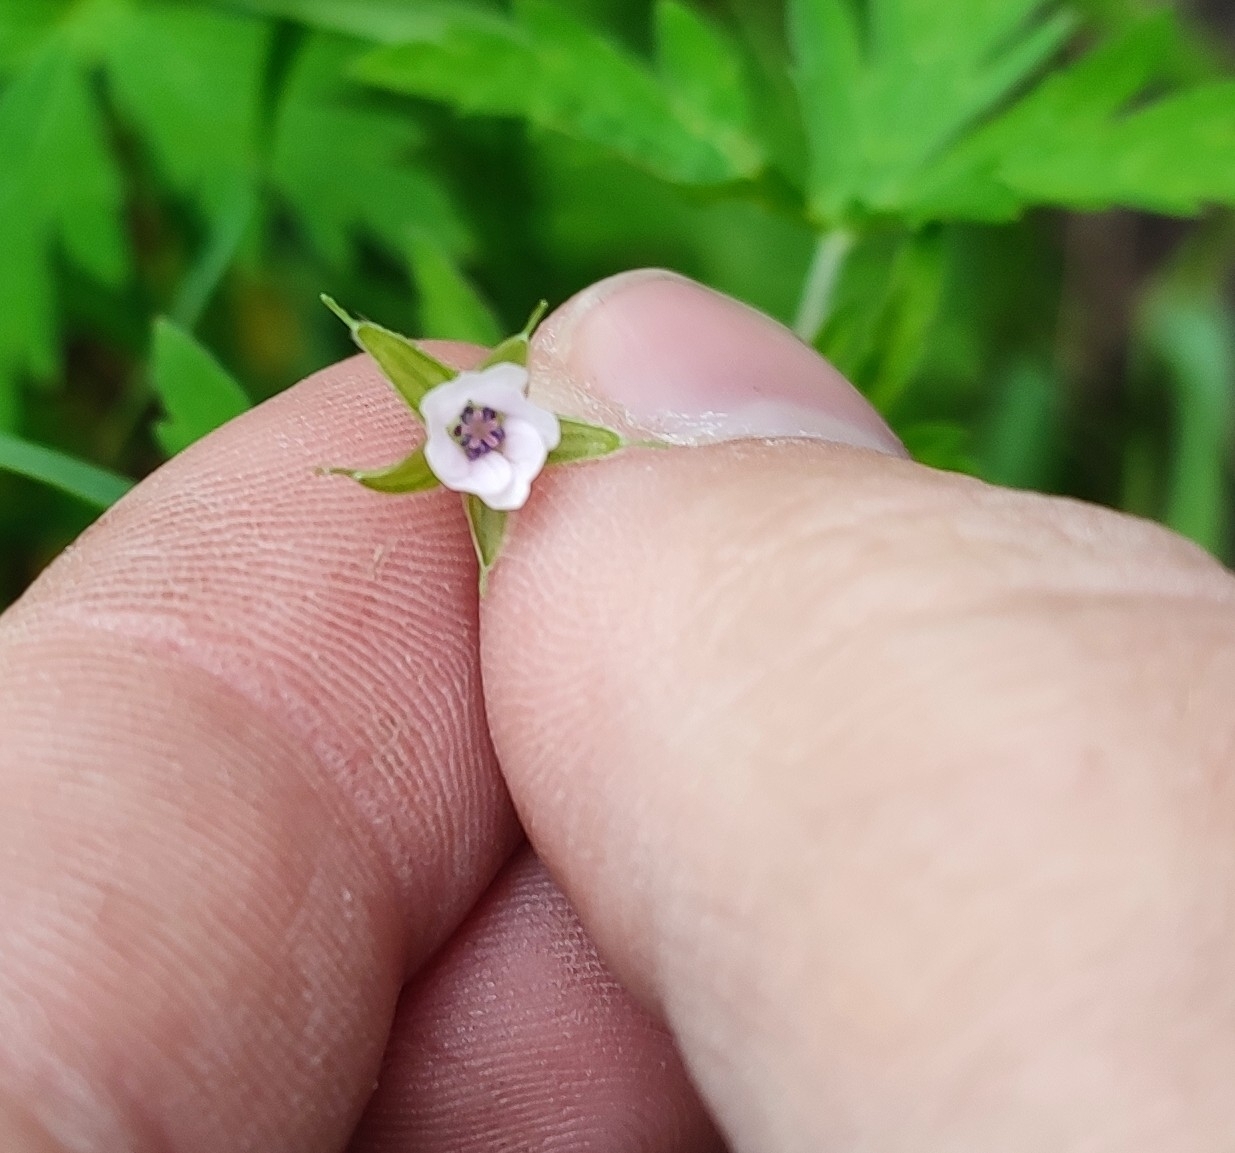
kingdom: Plantae
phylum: Tracheophyta
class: Magnoliopsida
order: Geraniales
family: Geraniaceae
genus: Geranium
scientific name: Geranium sibiricum
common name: Siberian crane's-bill
